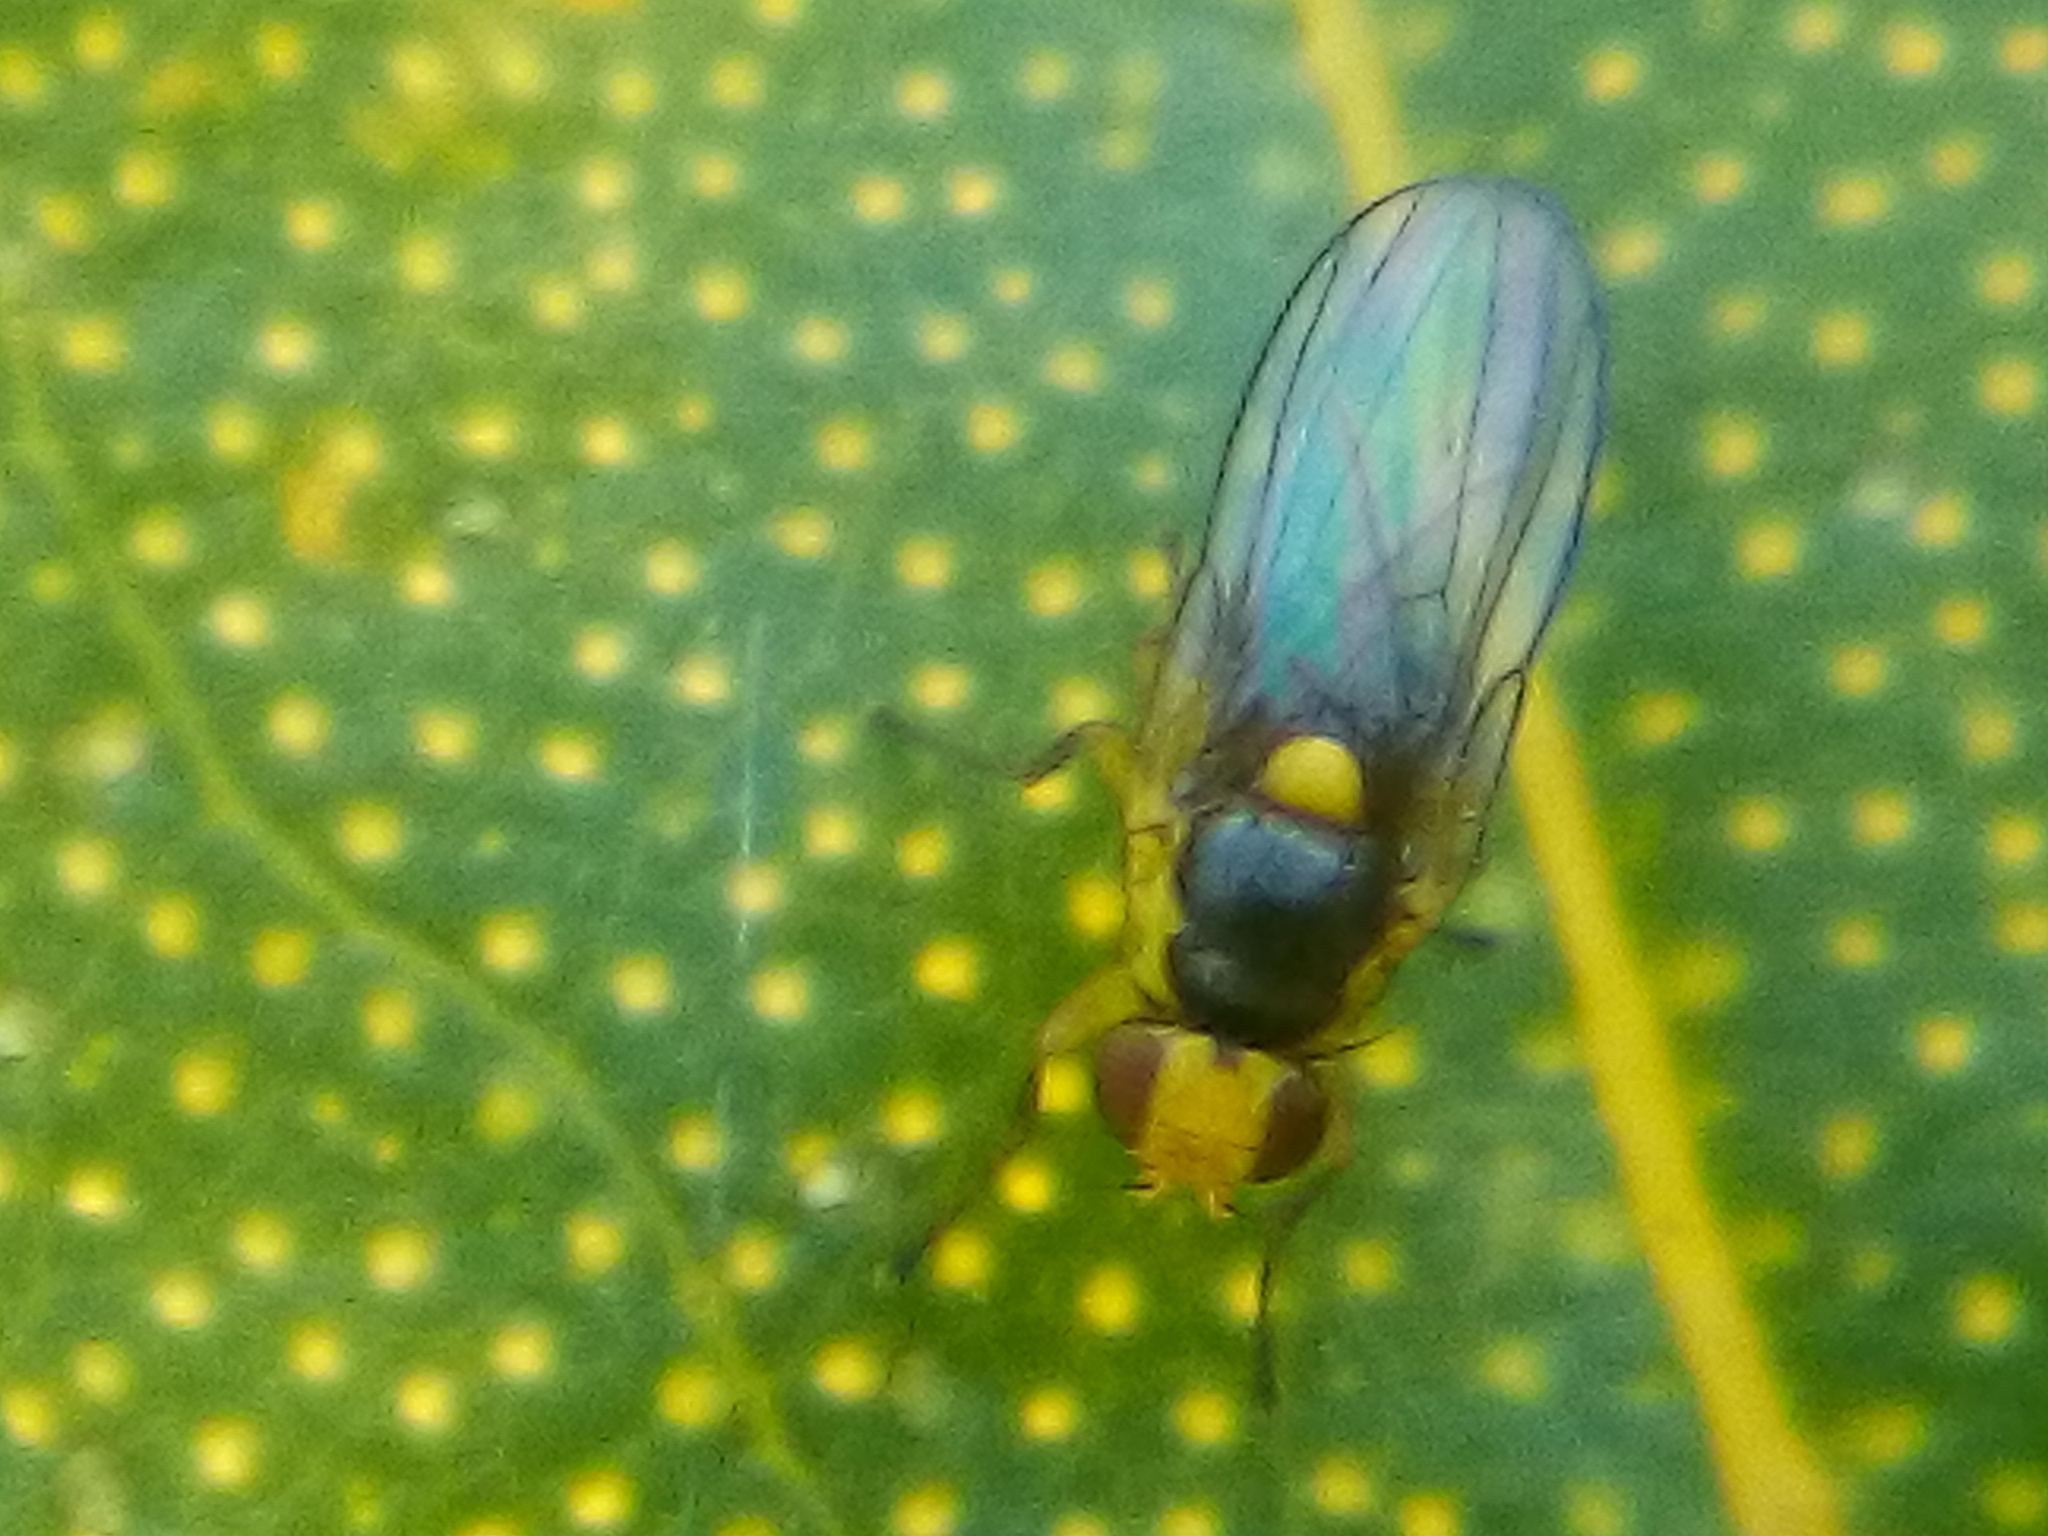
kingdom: Animalia
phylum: Arthropoda
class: Insecta
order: Diptera
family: Agromyzidae
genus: Liriomyza
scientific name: Liriomyza citreifemorata
